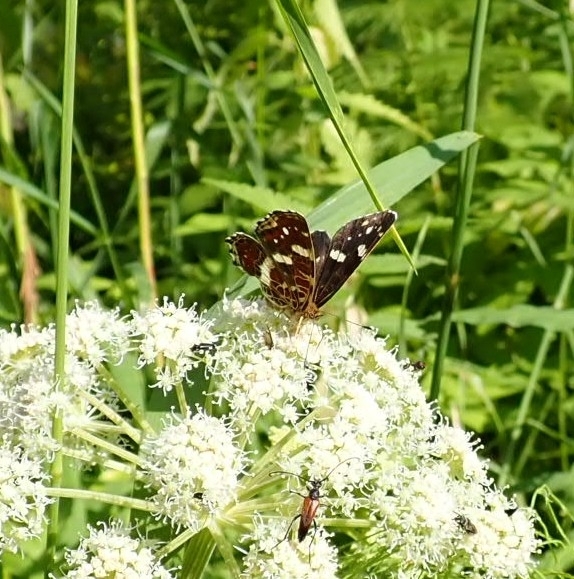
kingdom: Animalia
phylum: Arthropoda
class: Insecta
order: Lepidoptera
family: Nymphalidae
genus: Araschnia
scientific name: Araschnia levana
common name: Map butterfly
